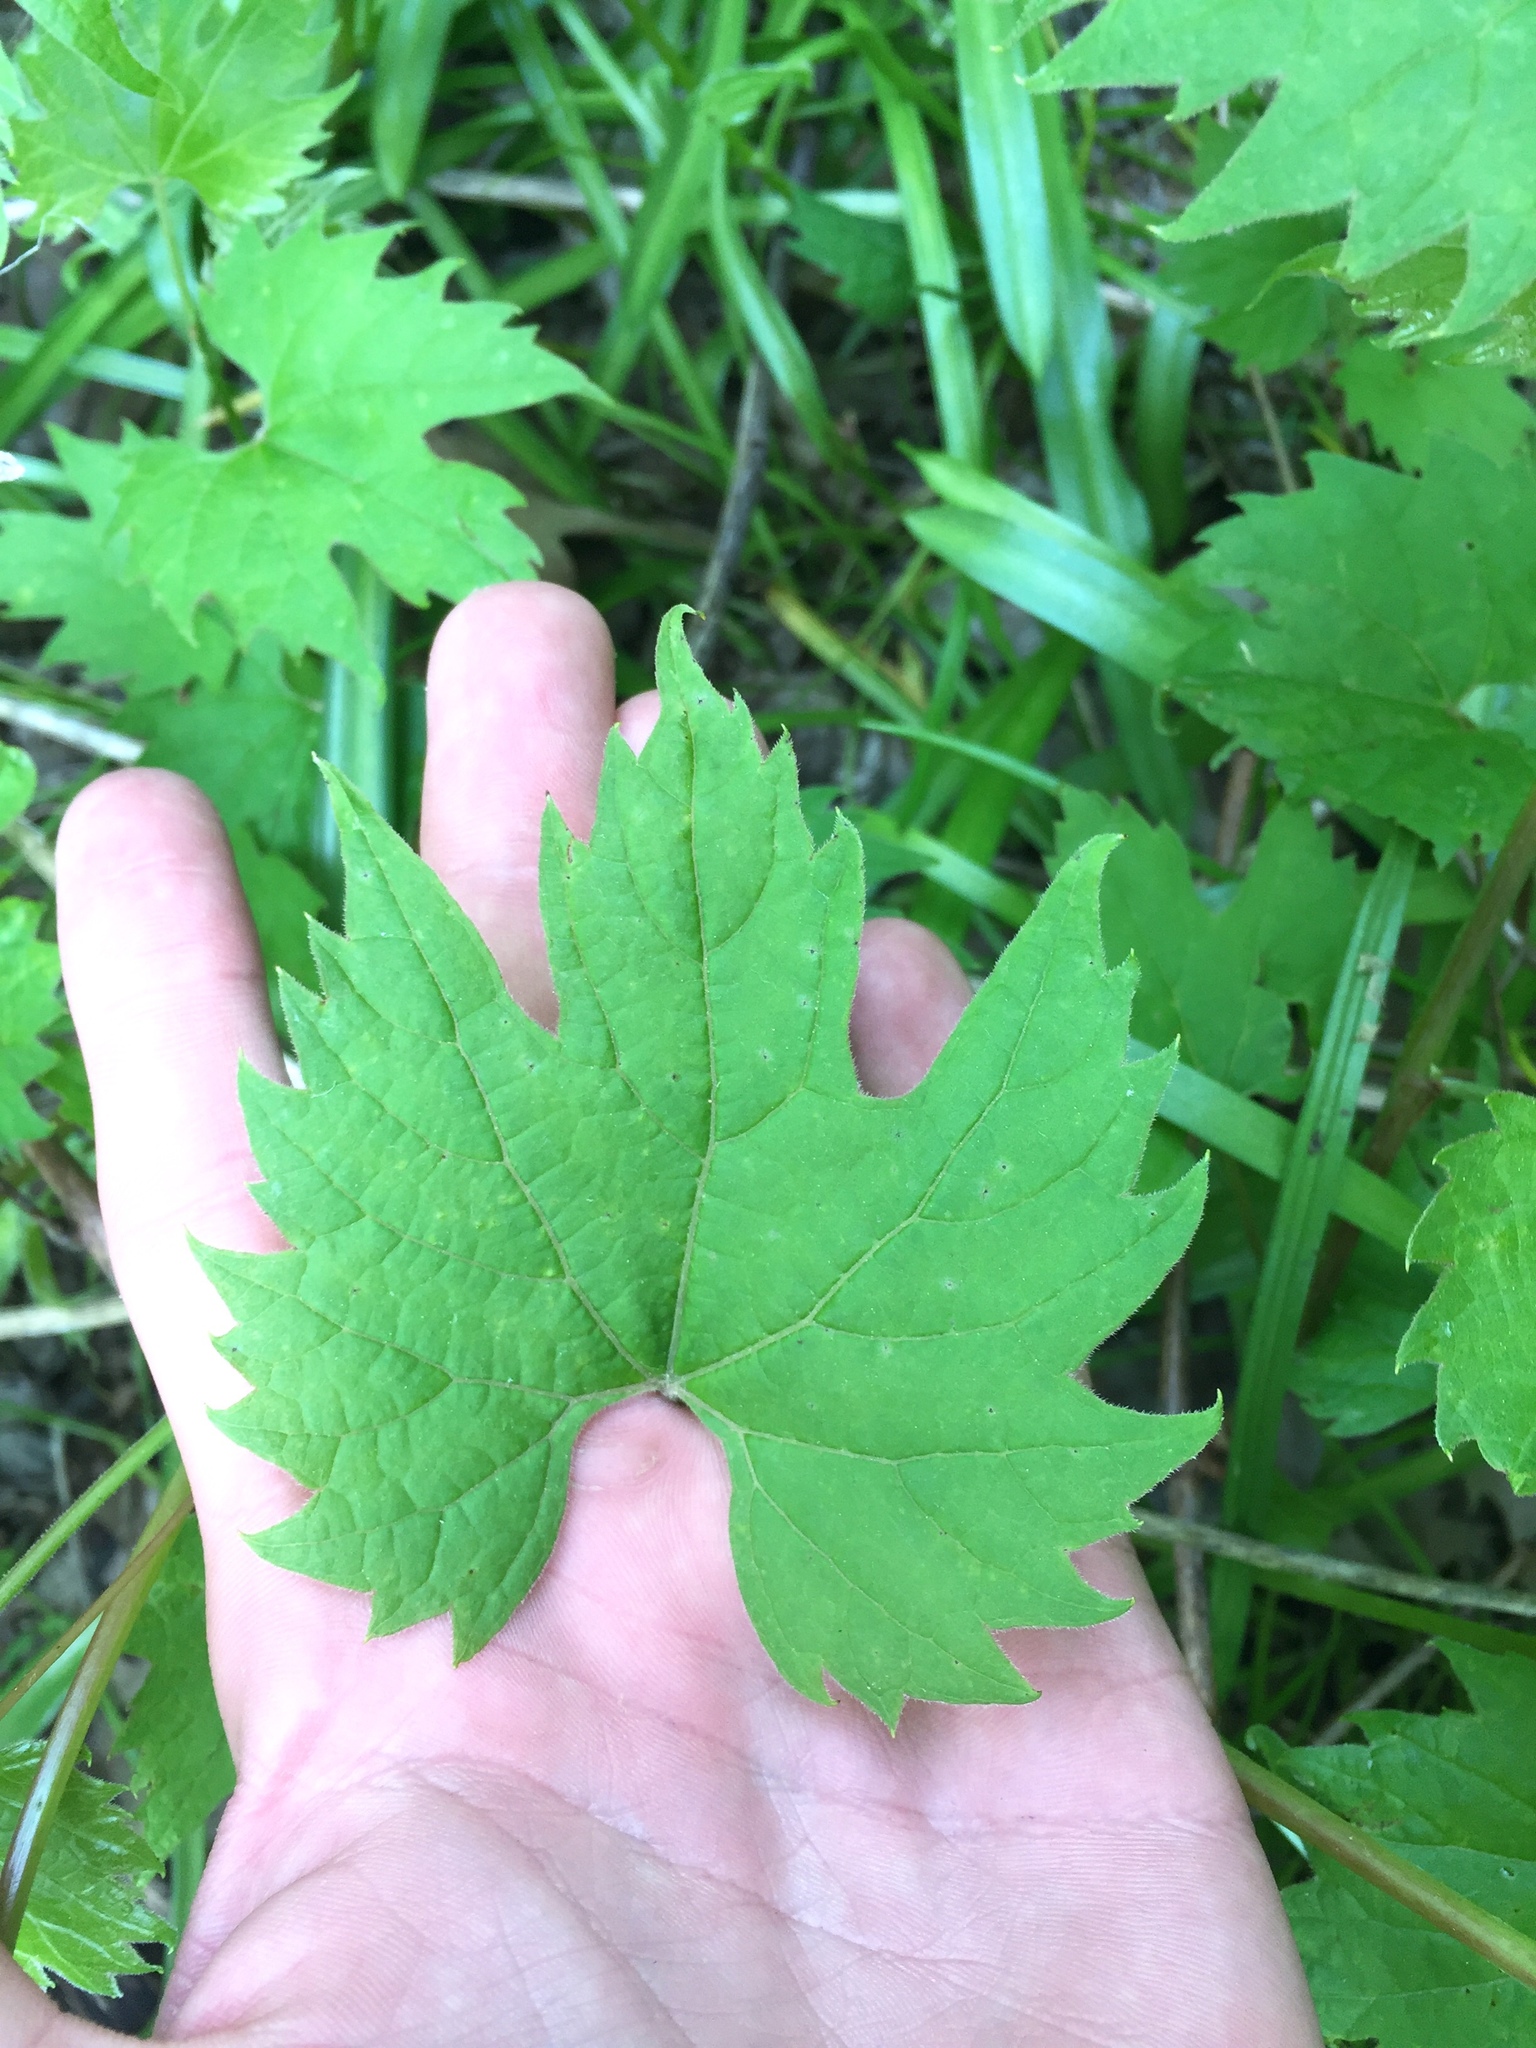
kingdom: Plantae
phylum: Tracheophyta
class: Magnoliopsida
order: Vitales
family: Vitaceae
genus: Vitis
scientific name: Vitis riparia
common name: Frost grape
